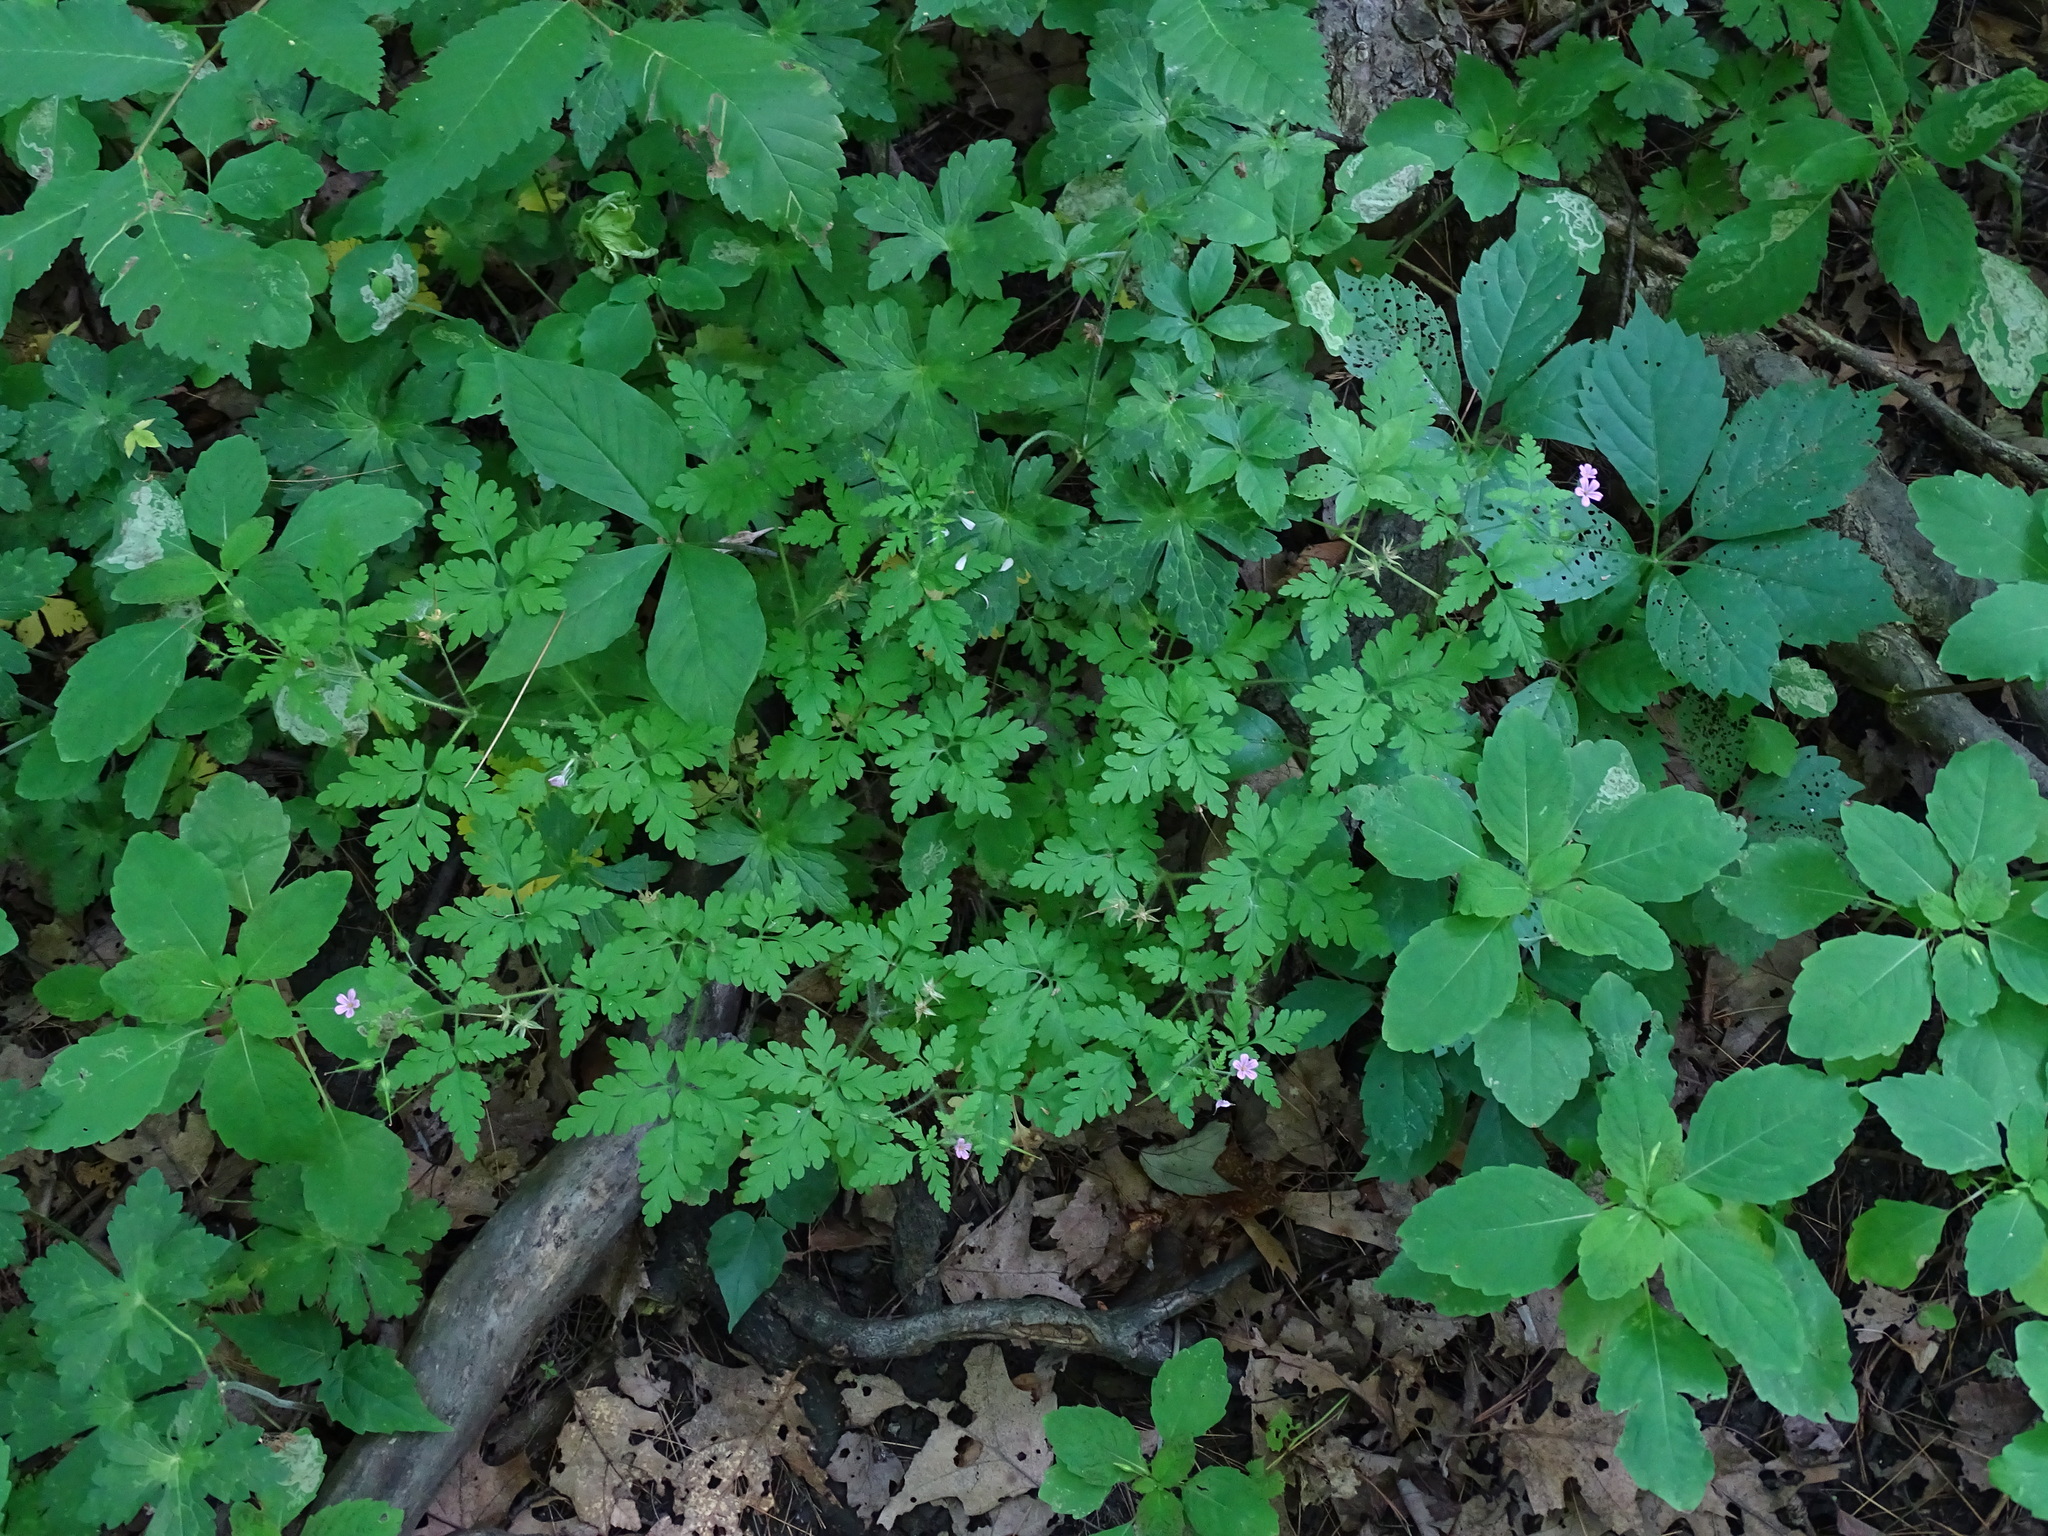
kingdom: Plantae
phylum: Tracheophyta
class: Magnoliopsida
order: Geraniales
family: Geraniaceae
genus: Geranium
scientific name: Geranium robertianum
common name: Herb-robert
